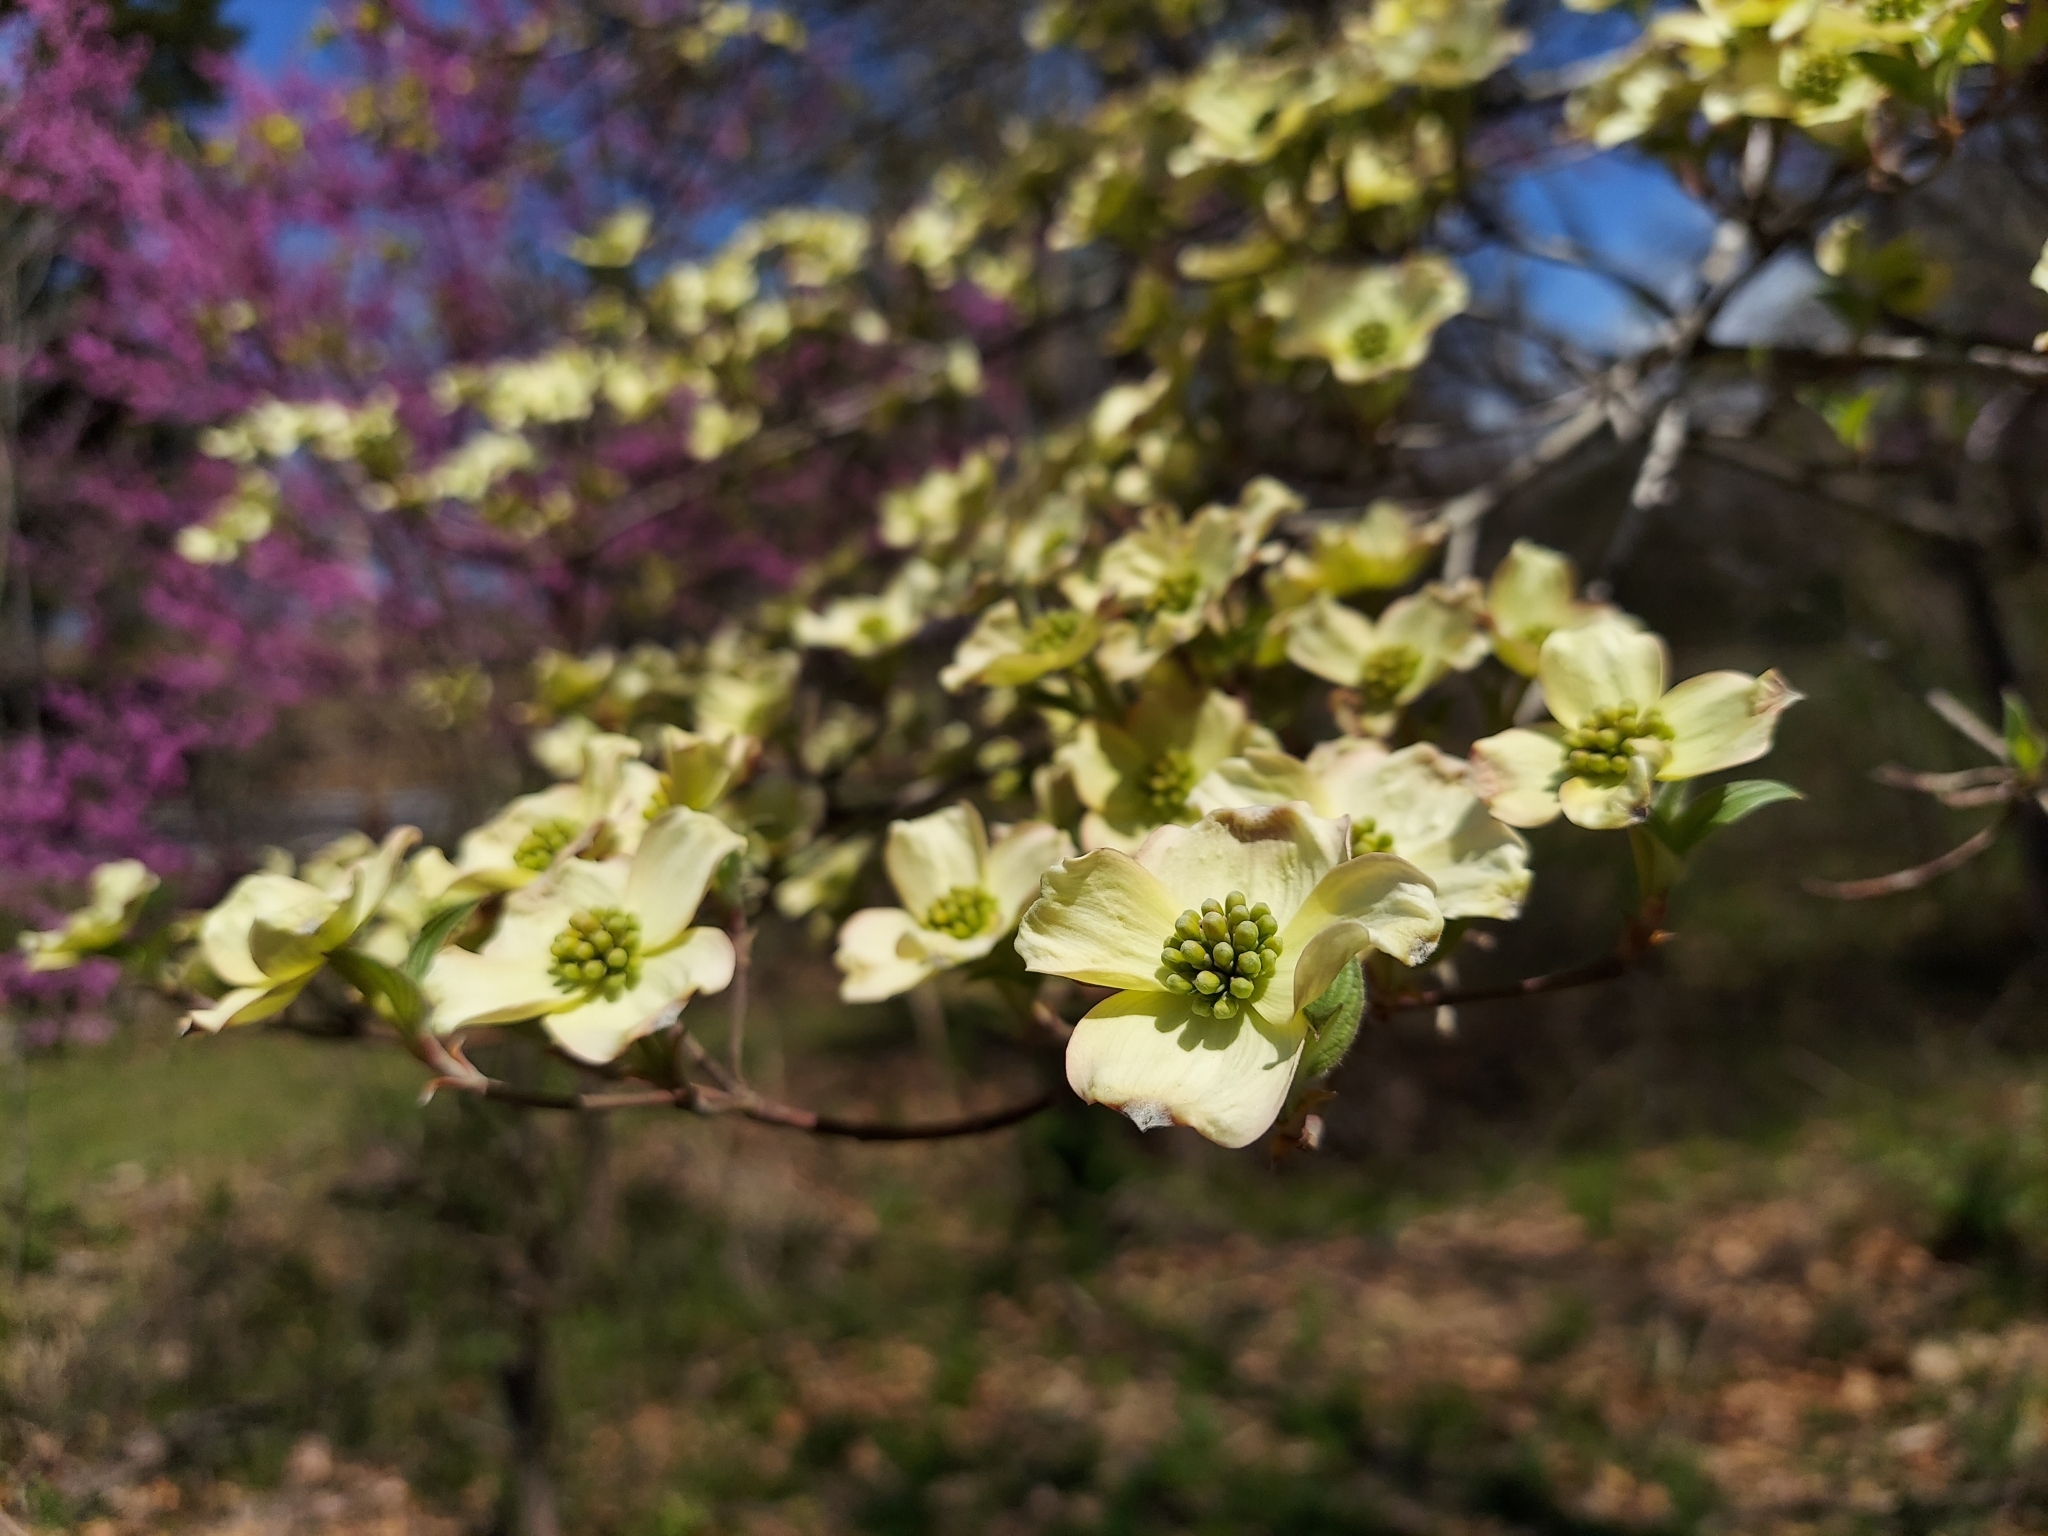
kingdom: Plantae
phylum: Tracheophyta
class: Magnoliopsida
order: Cornales
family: Cornaceae
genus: Cornus
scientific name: Cornus florida
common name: Flowering dogwood
